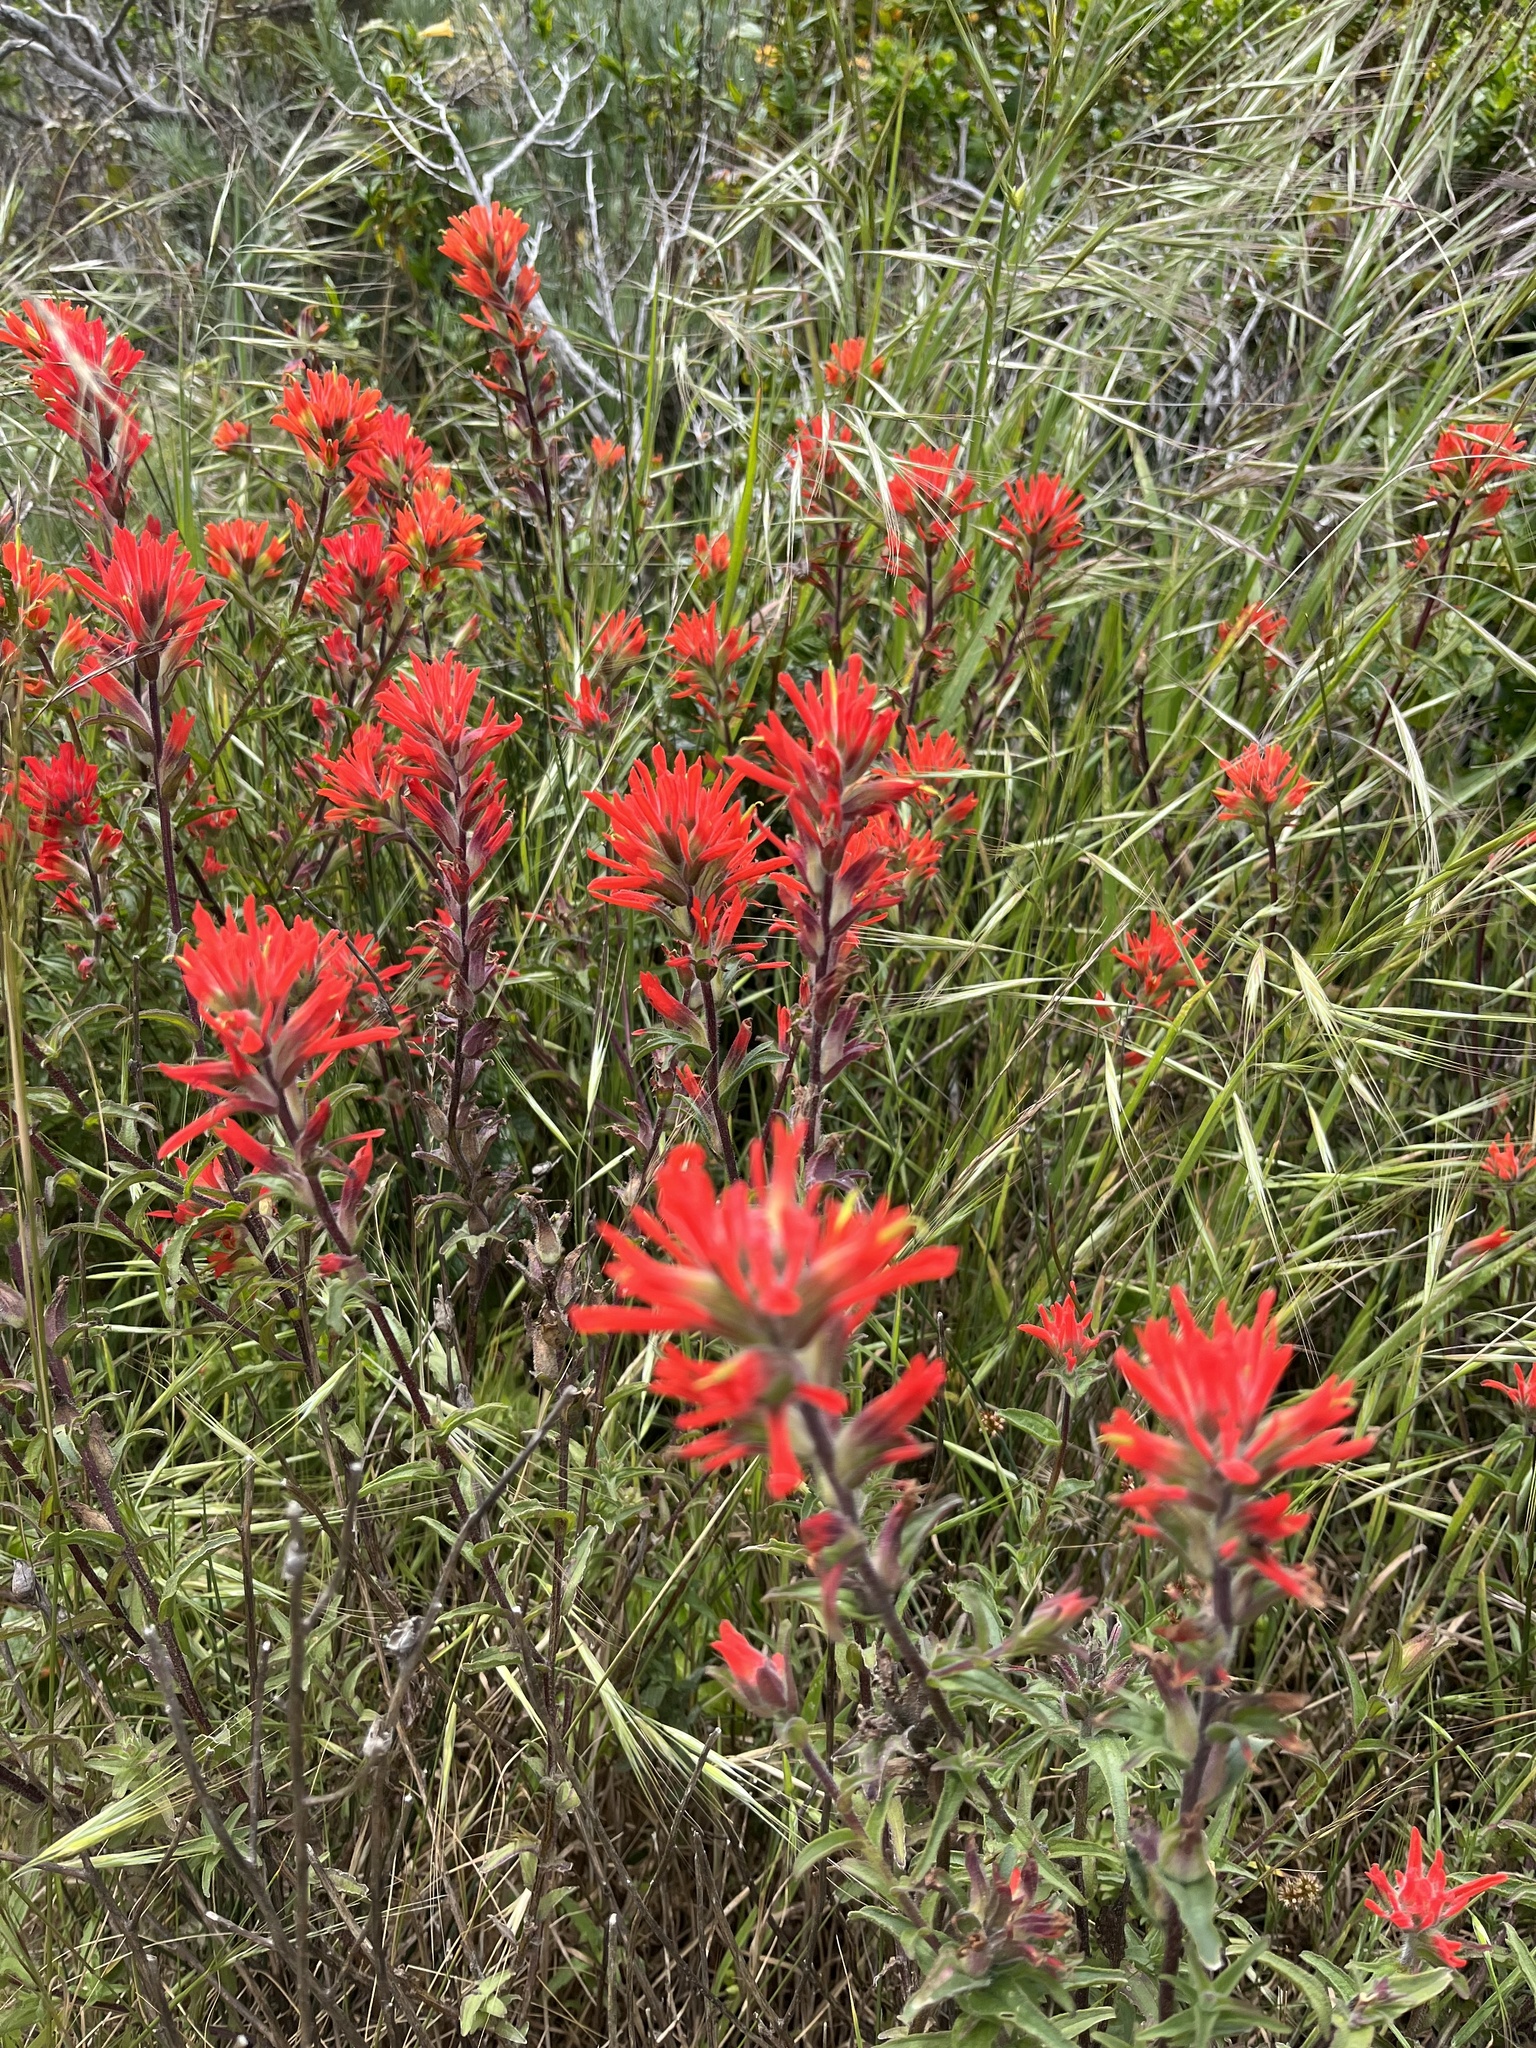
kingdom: Plantae
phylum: Tracheophyta
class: Magnoliopsida
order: Lamiales
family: Orobanchaceae
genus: Castilleja
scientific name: Castilleja affinis
